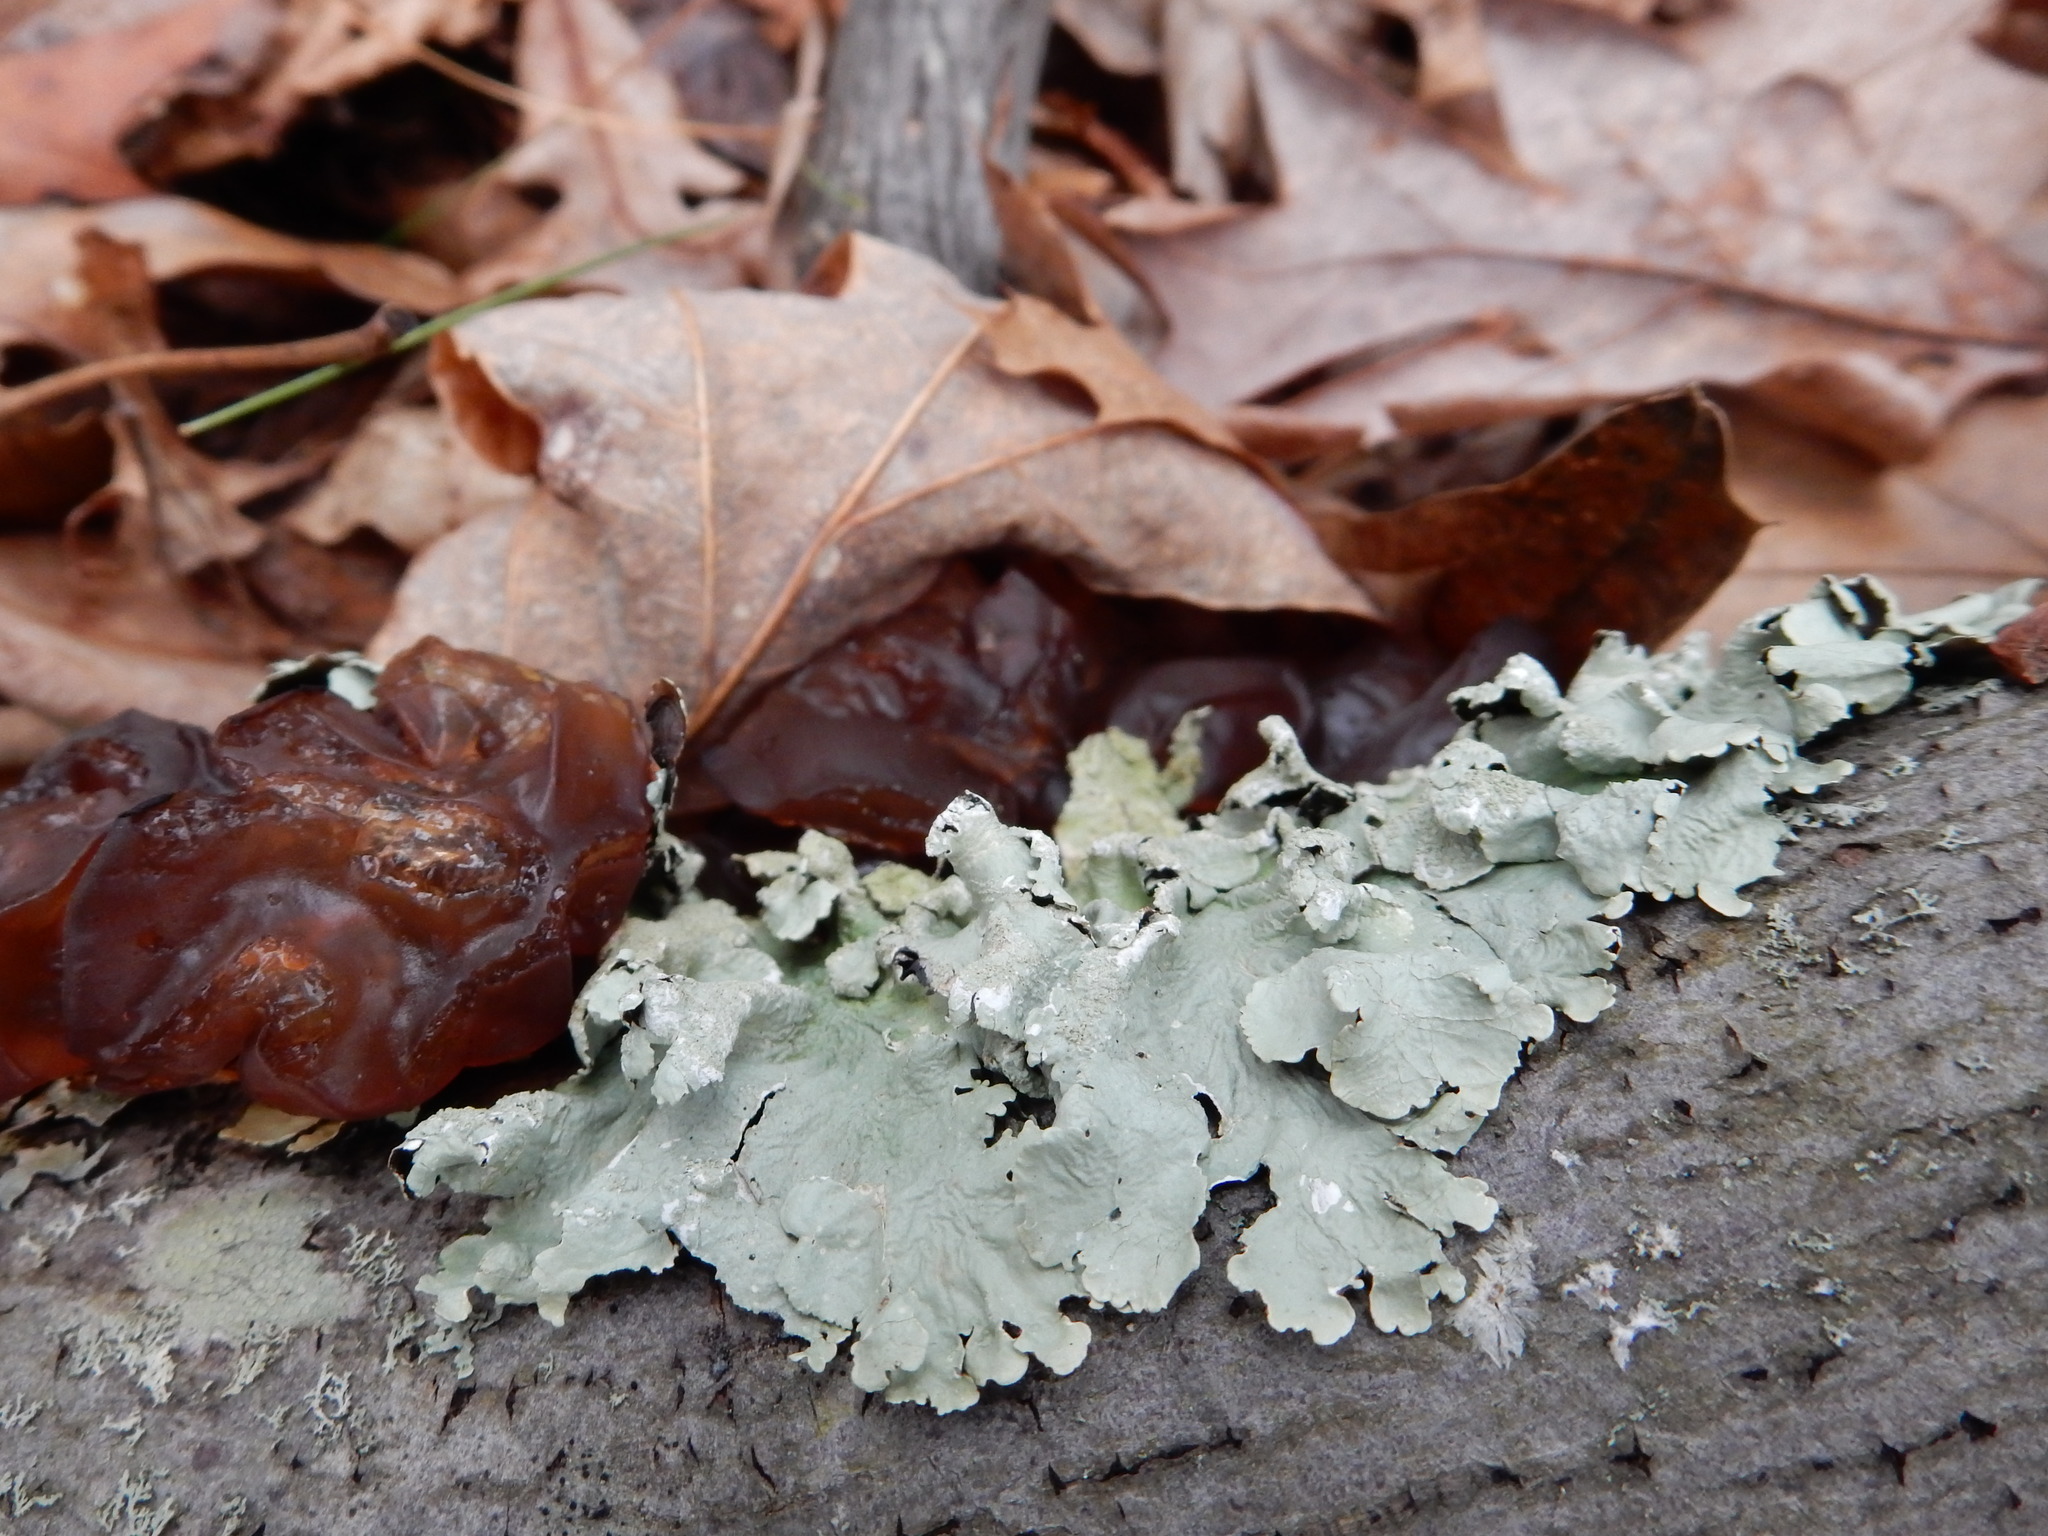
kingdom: Fungi
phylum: Basidiomycota
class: Agaricomycetes
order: Auriculariales
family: Auriculariaceae
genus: Exidia
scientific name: Exidia
